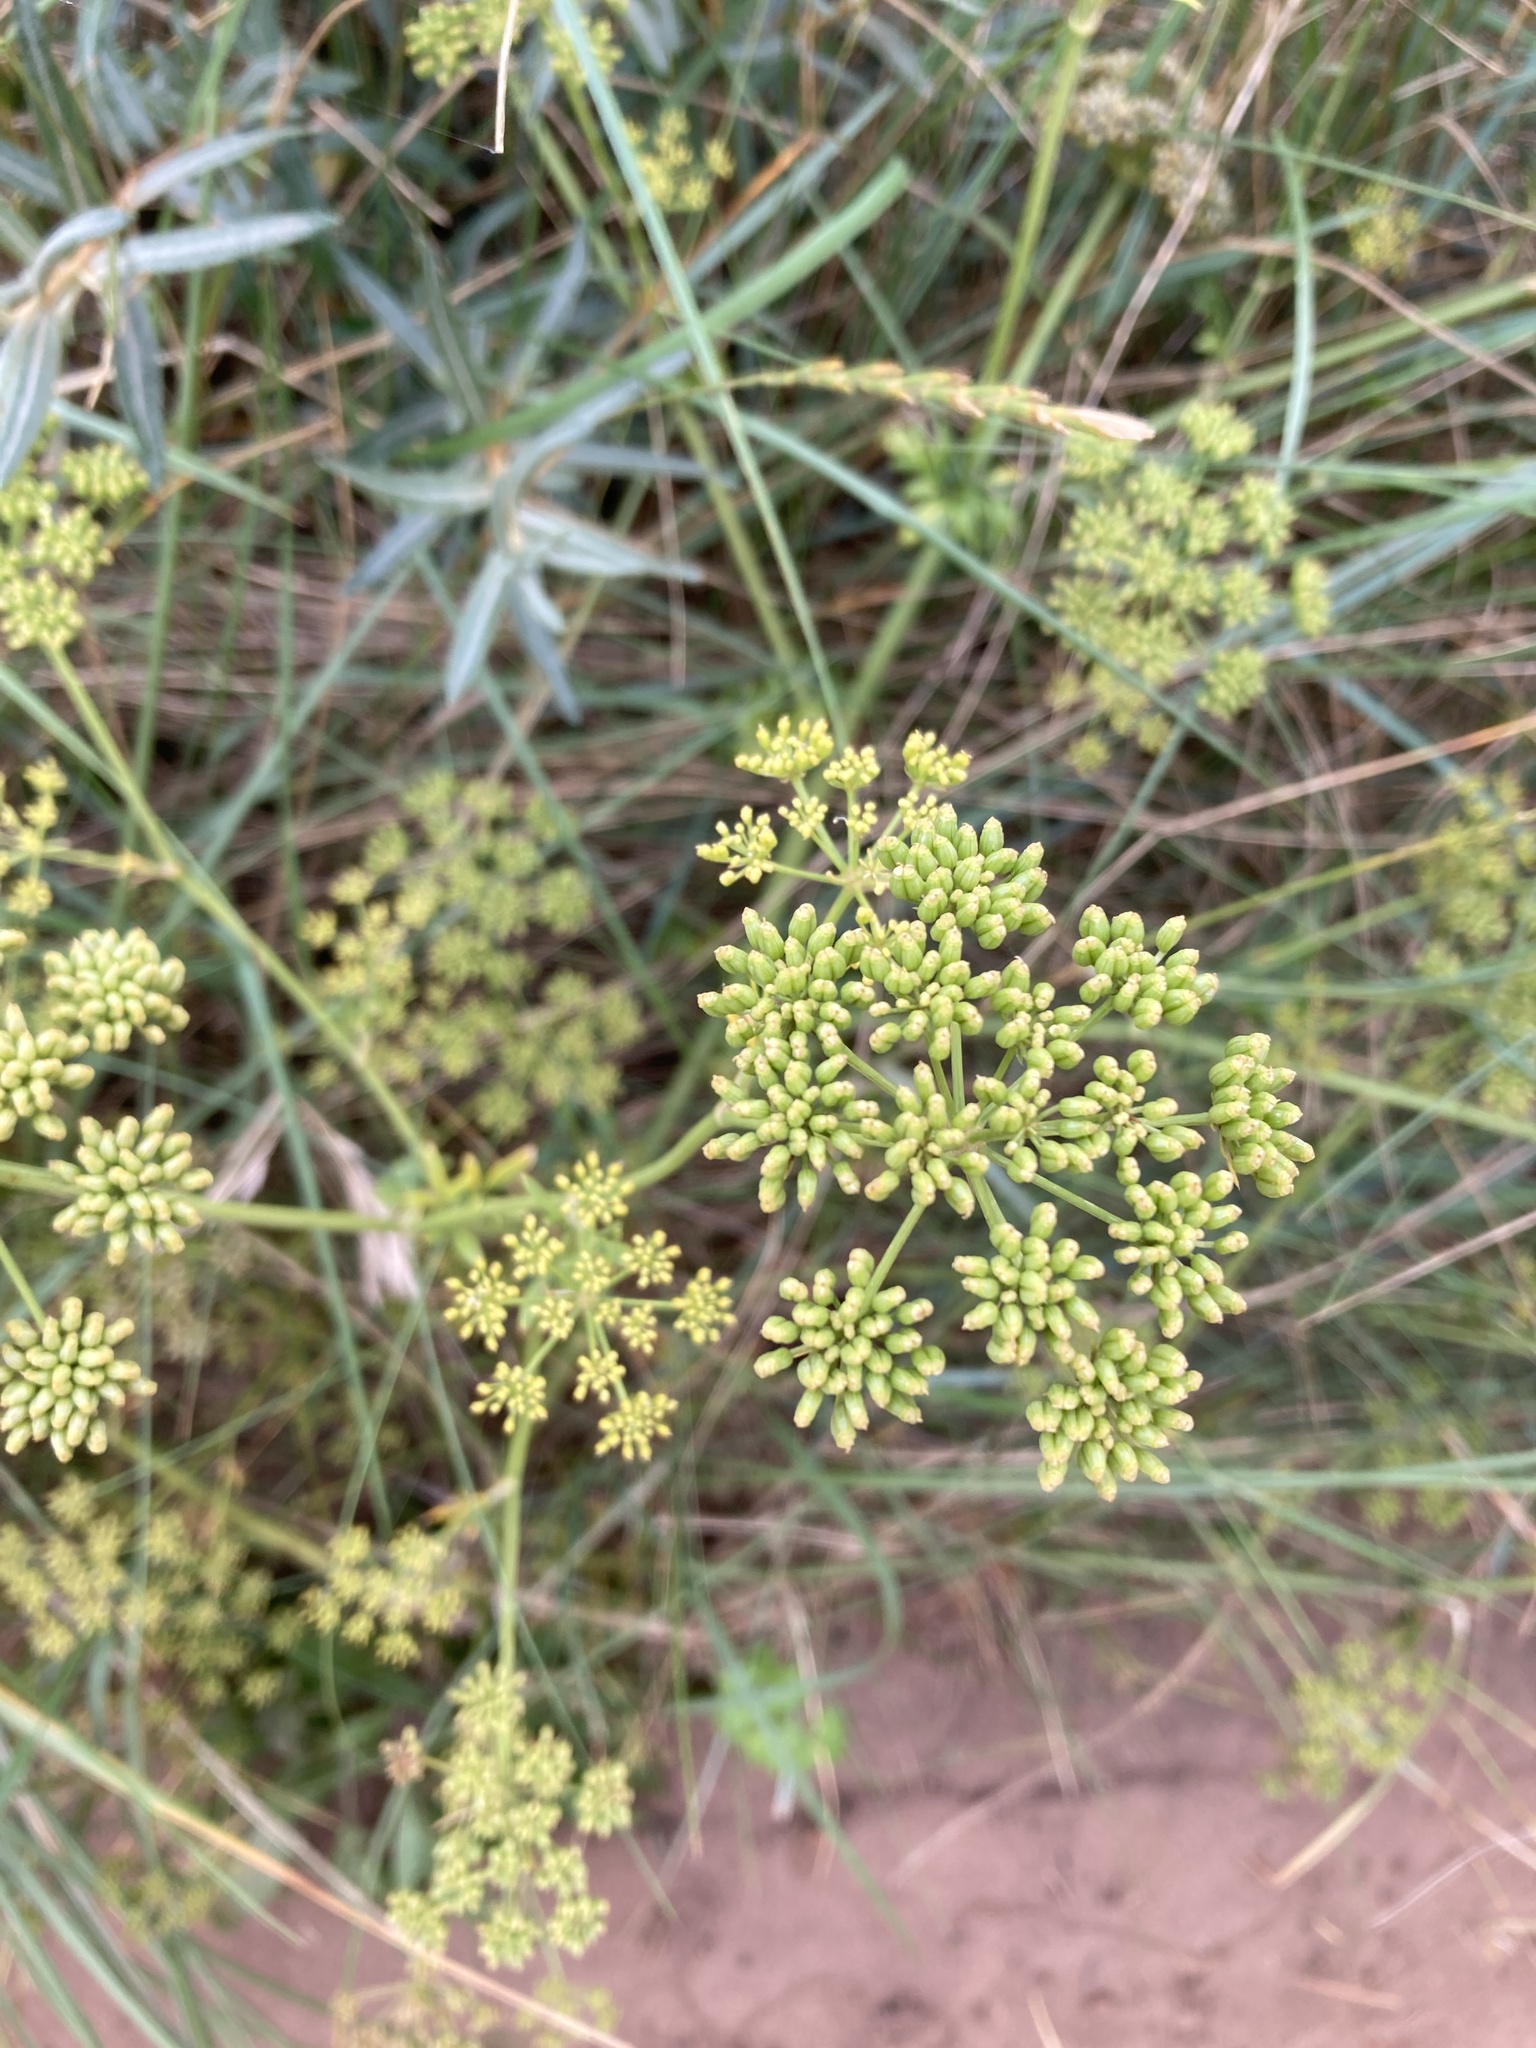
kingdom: Plantae
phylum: Tracheophyta
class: Magnoliopsida
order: Apiales
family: Apiaceae
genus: Crithmum
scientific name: Crithmum maritimum
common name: Rock samphire
